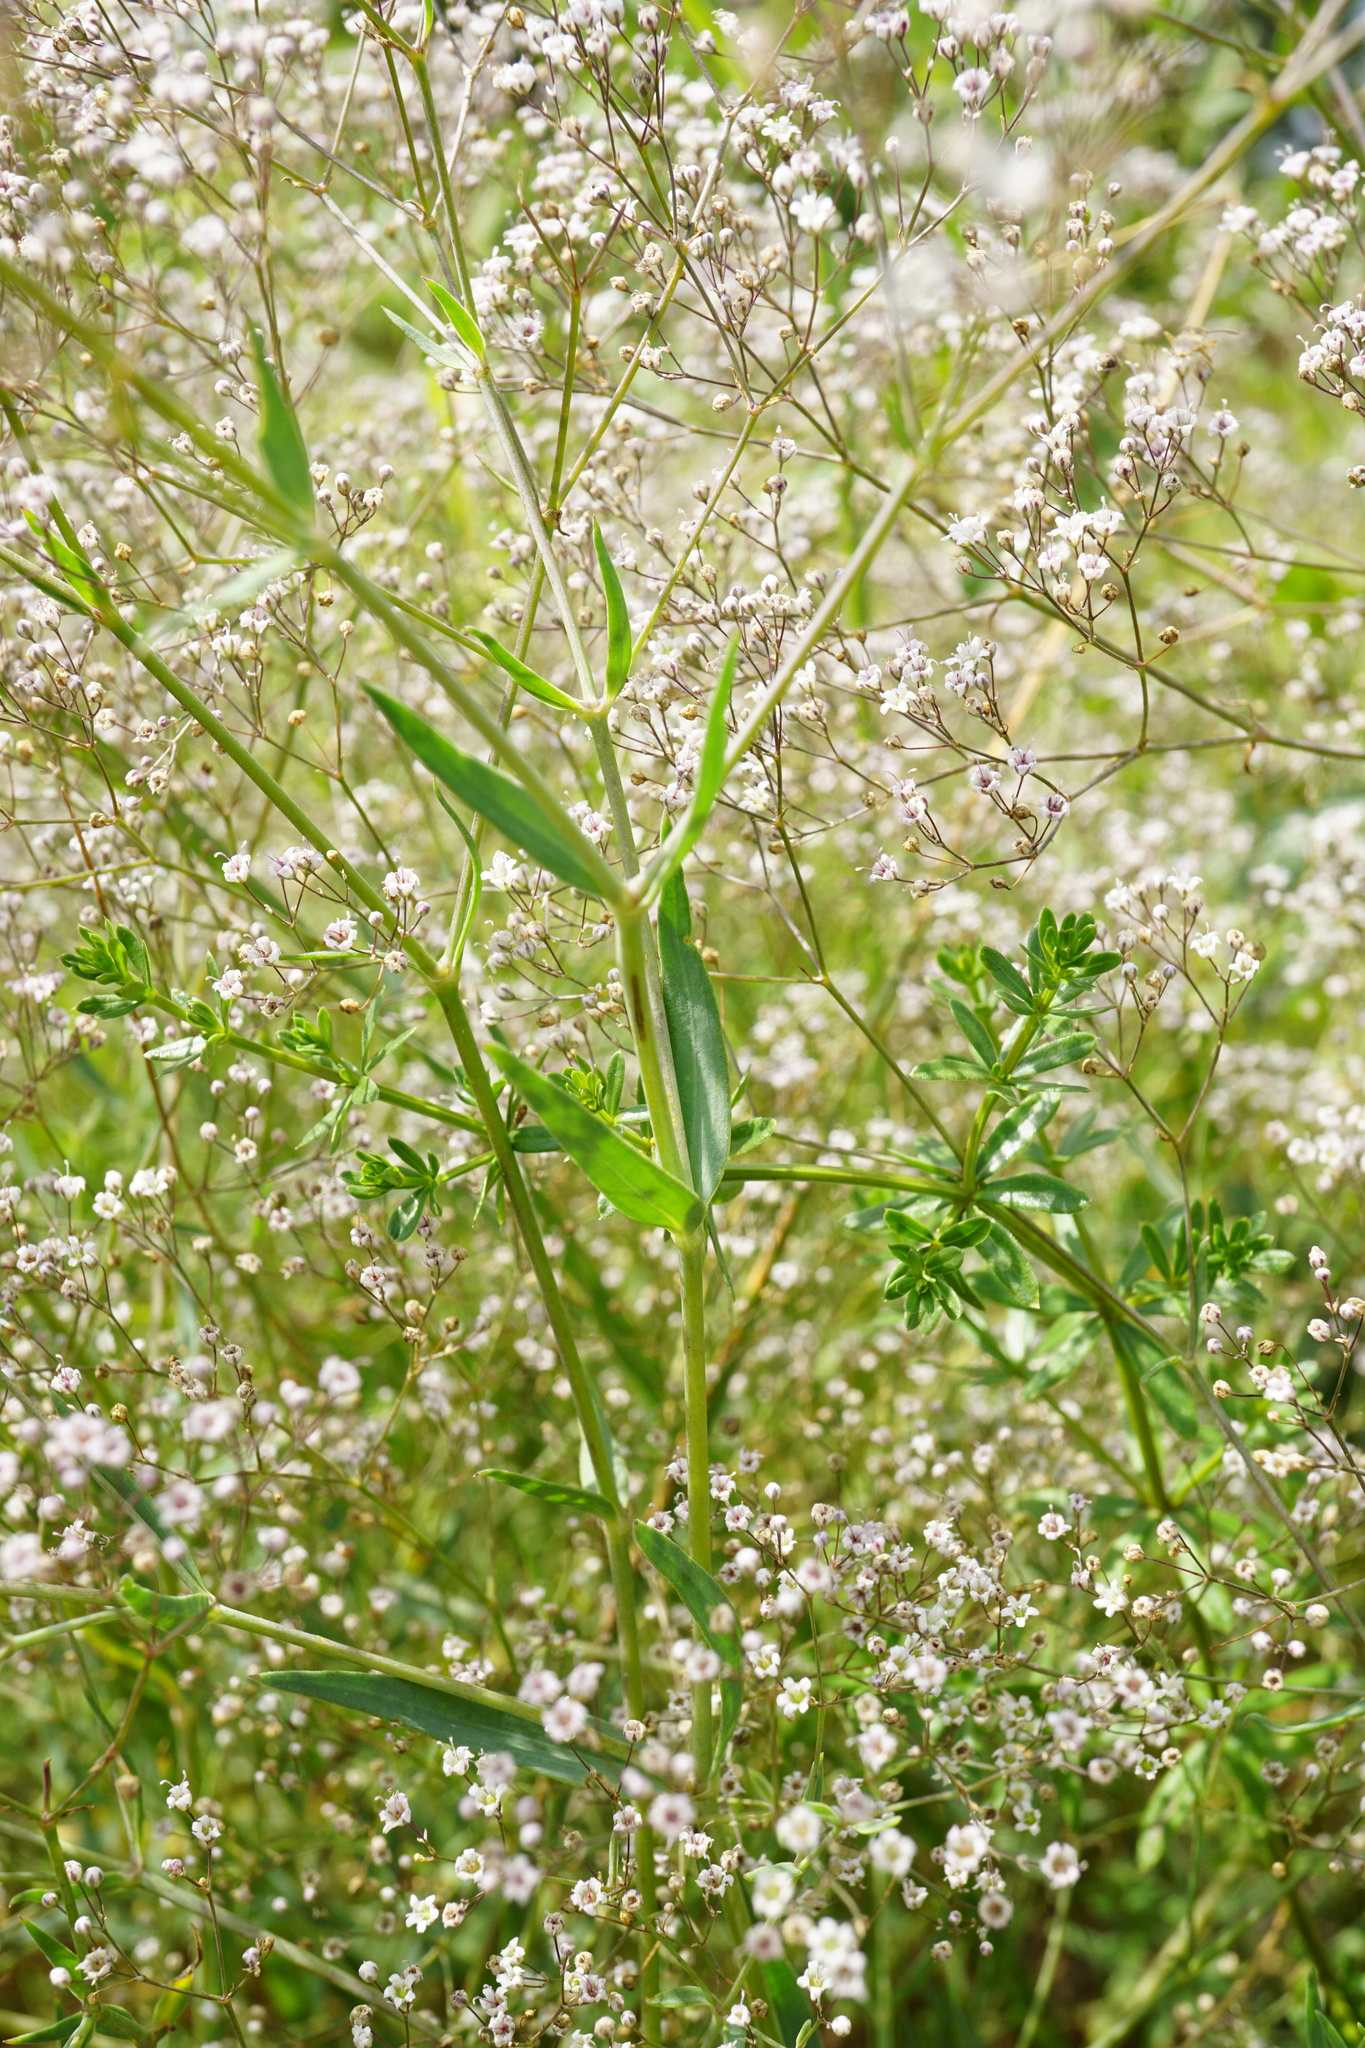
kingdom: Plantae
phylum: Tracheophyta
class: Magnoliopsida
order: Caryophyllales
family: Caryophyllaceae
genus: Gypsophila
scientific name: Gypsophila paniculata
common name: Baby's-breath
